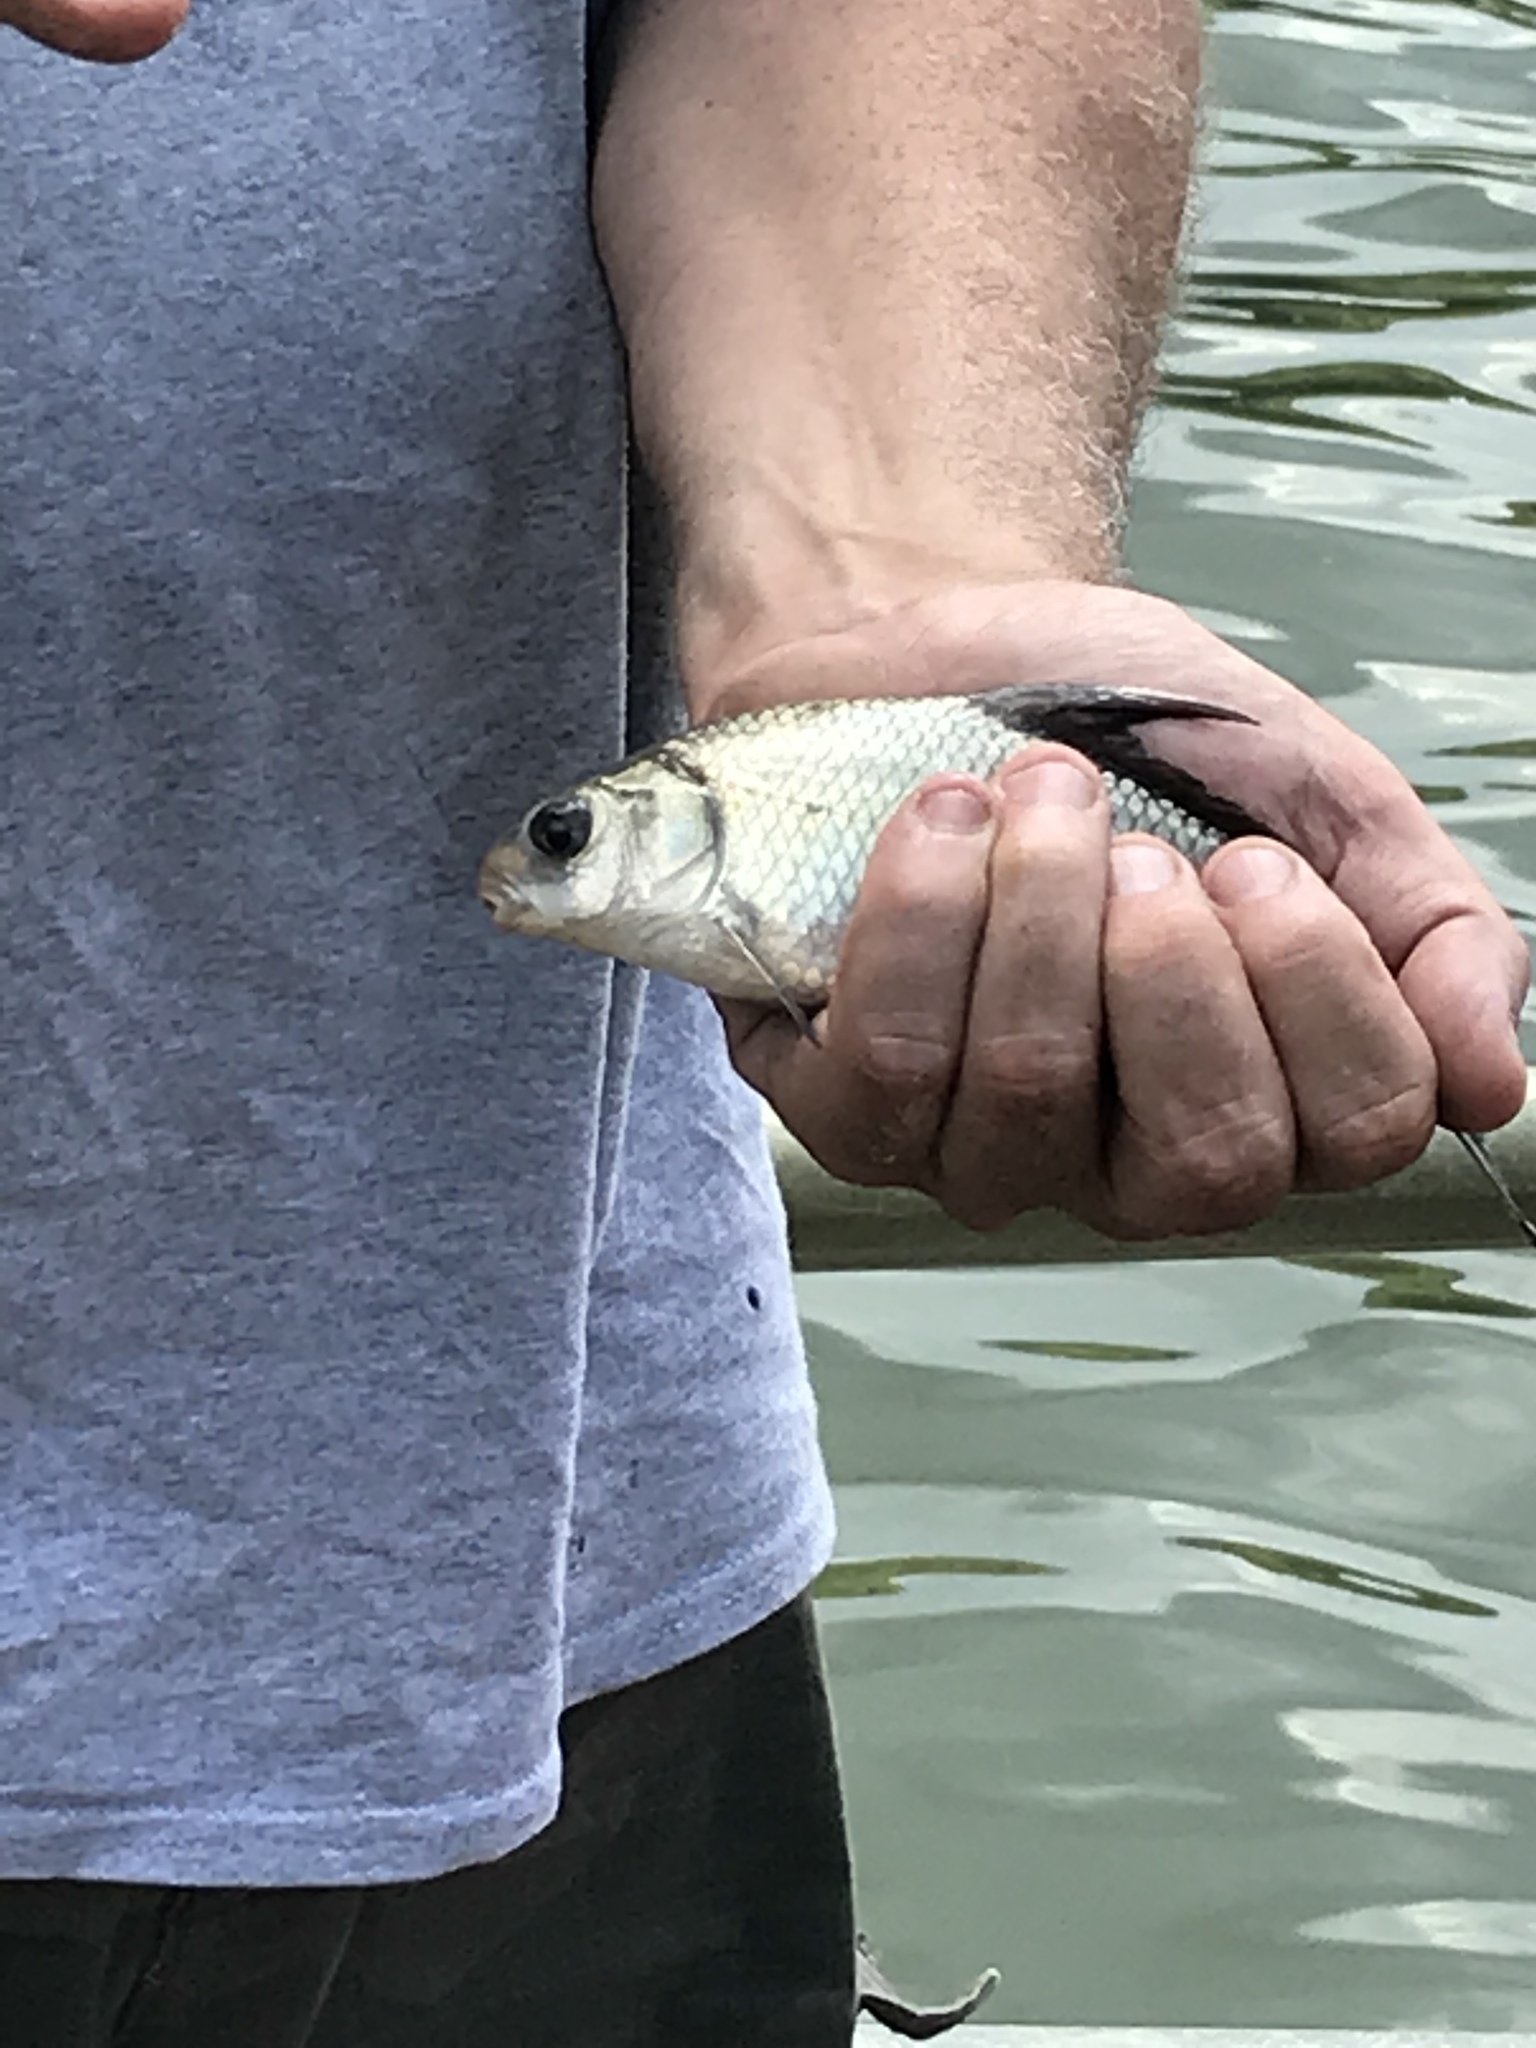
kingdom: Animalia
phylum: Chordata
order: Cypriniformes
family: Catostomidae
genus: Ictiobus
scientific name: Ictiobus bubalus
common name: Smallmouth buffalo
